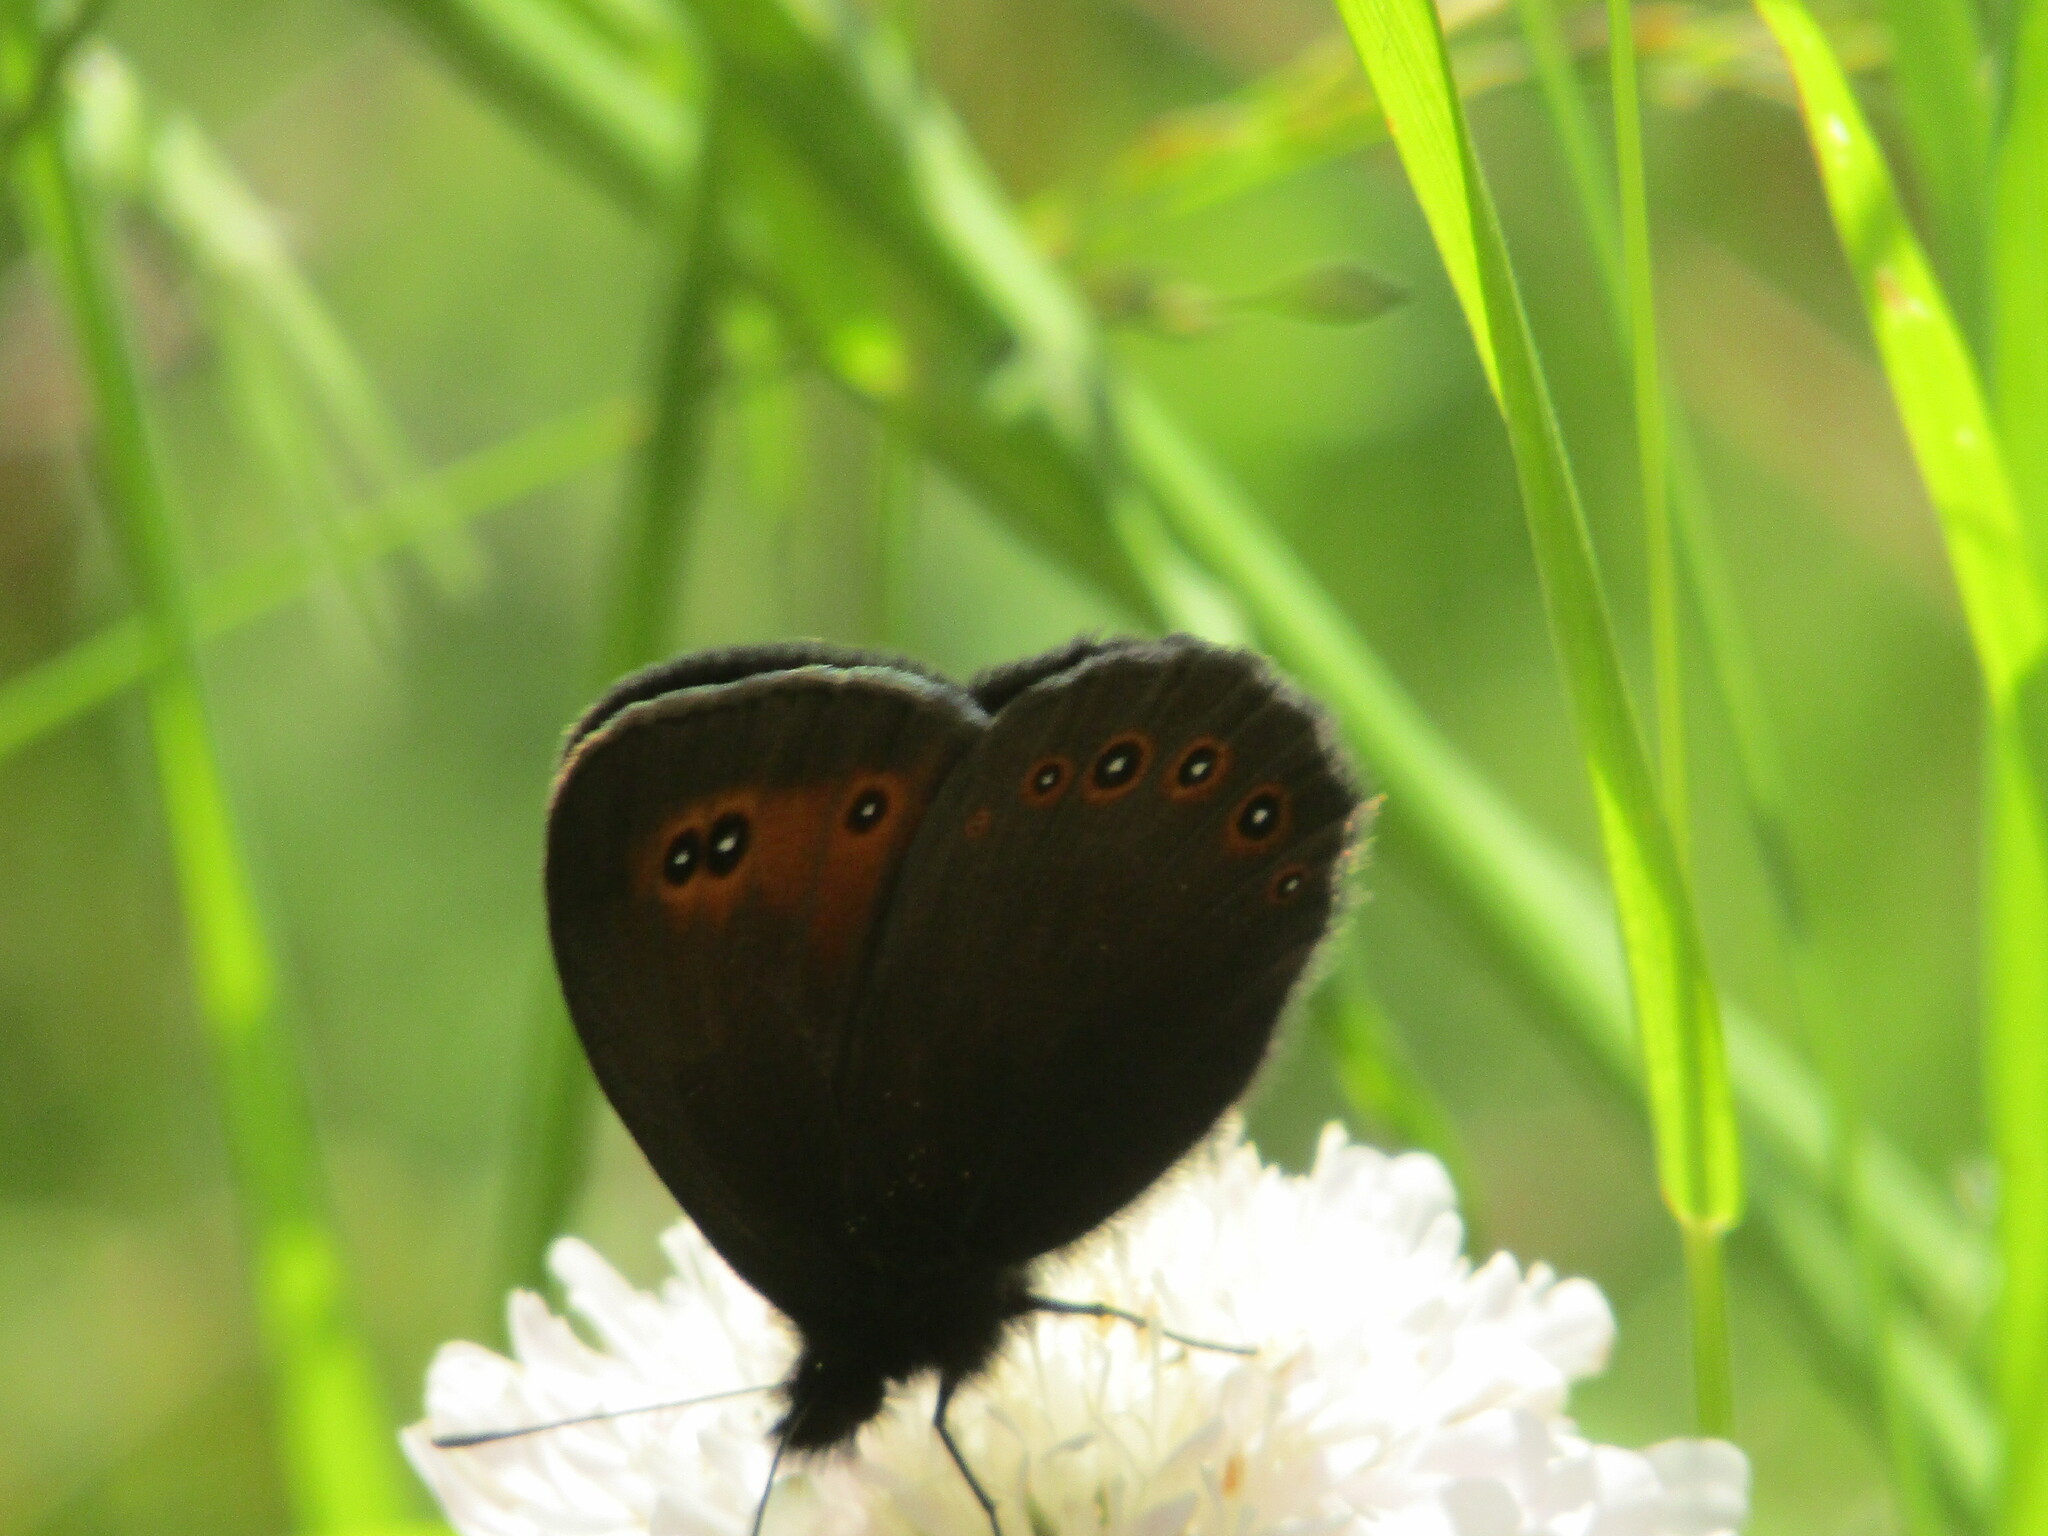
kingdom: Animalia
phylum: Arthropoda
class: Insecta
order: Lepidoptera
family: Nymphalidae
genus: Erebia
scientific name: Erebia oeme
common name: Bright-eyed ringlet
